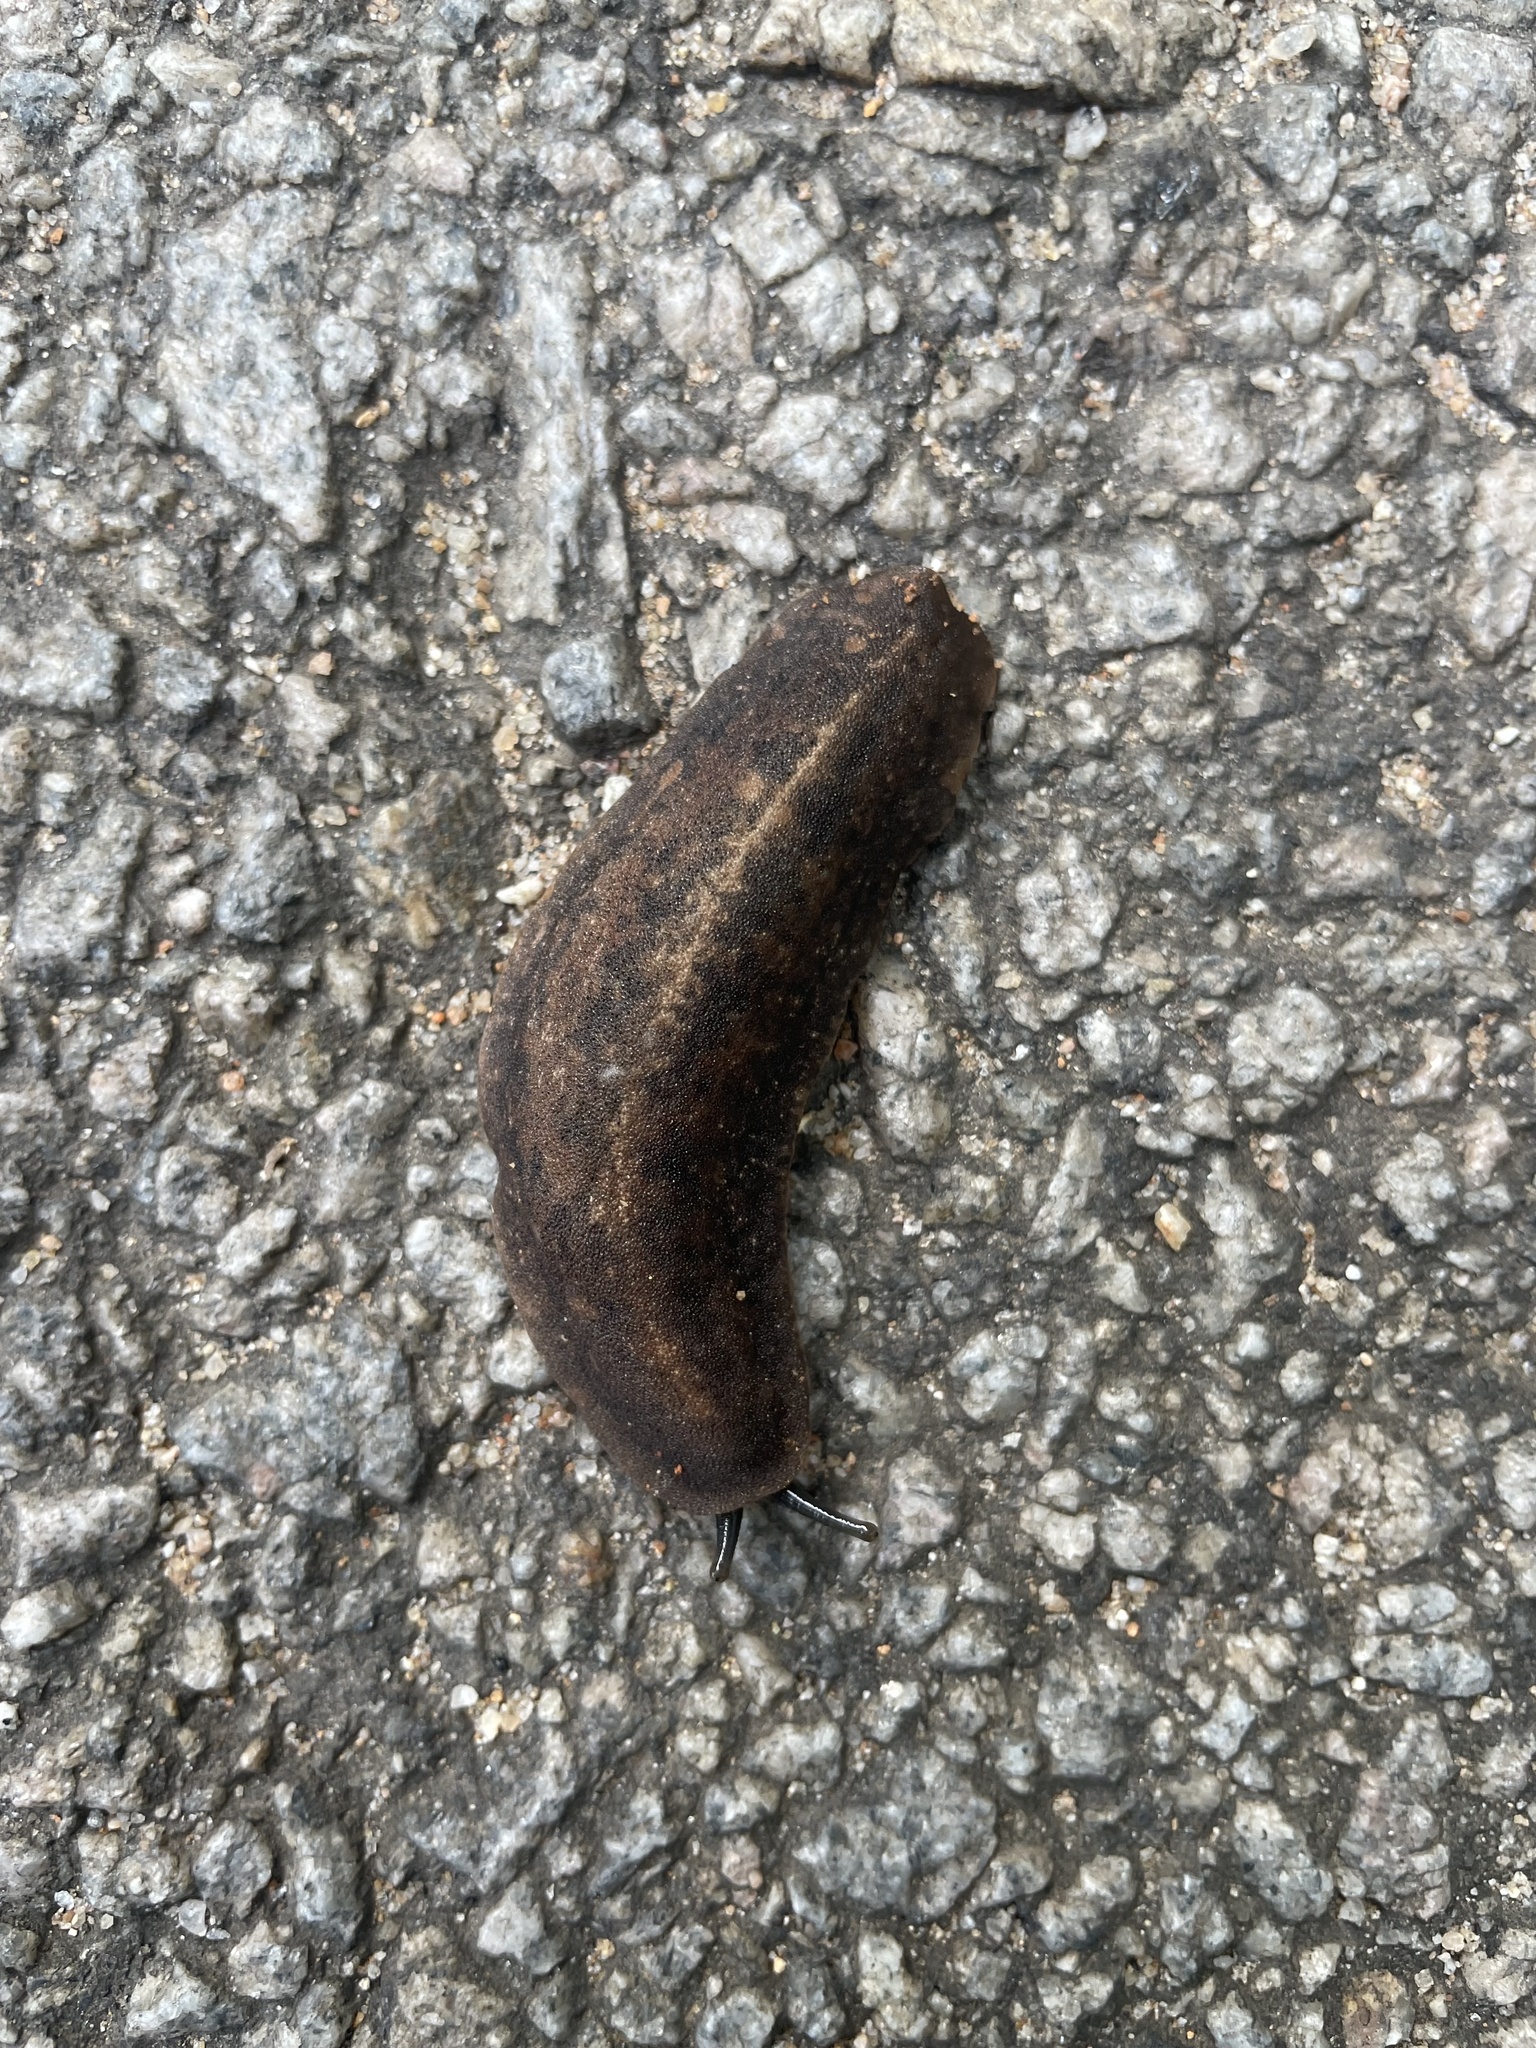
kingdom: Animalia
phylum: Mollusca
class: Gastropoda
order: Systellommatophora
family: Veronicellidae
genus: Laevicaulis
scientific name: Laevicaulis alte
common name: Tropical leatherleaf
